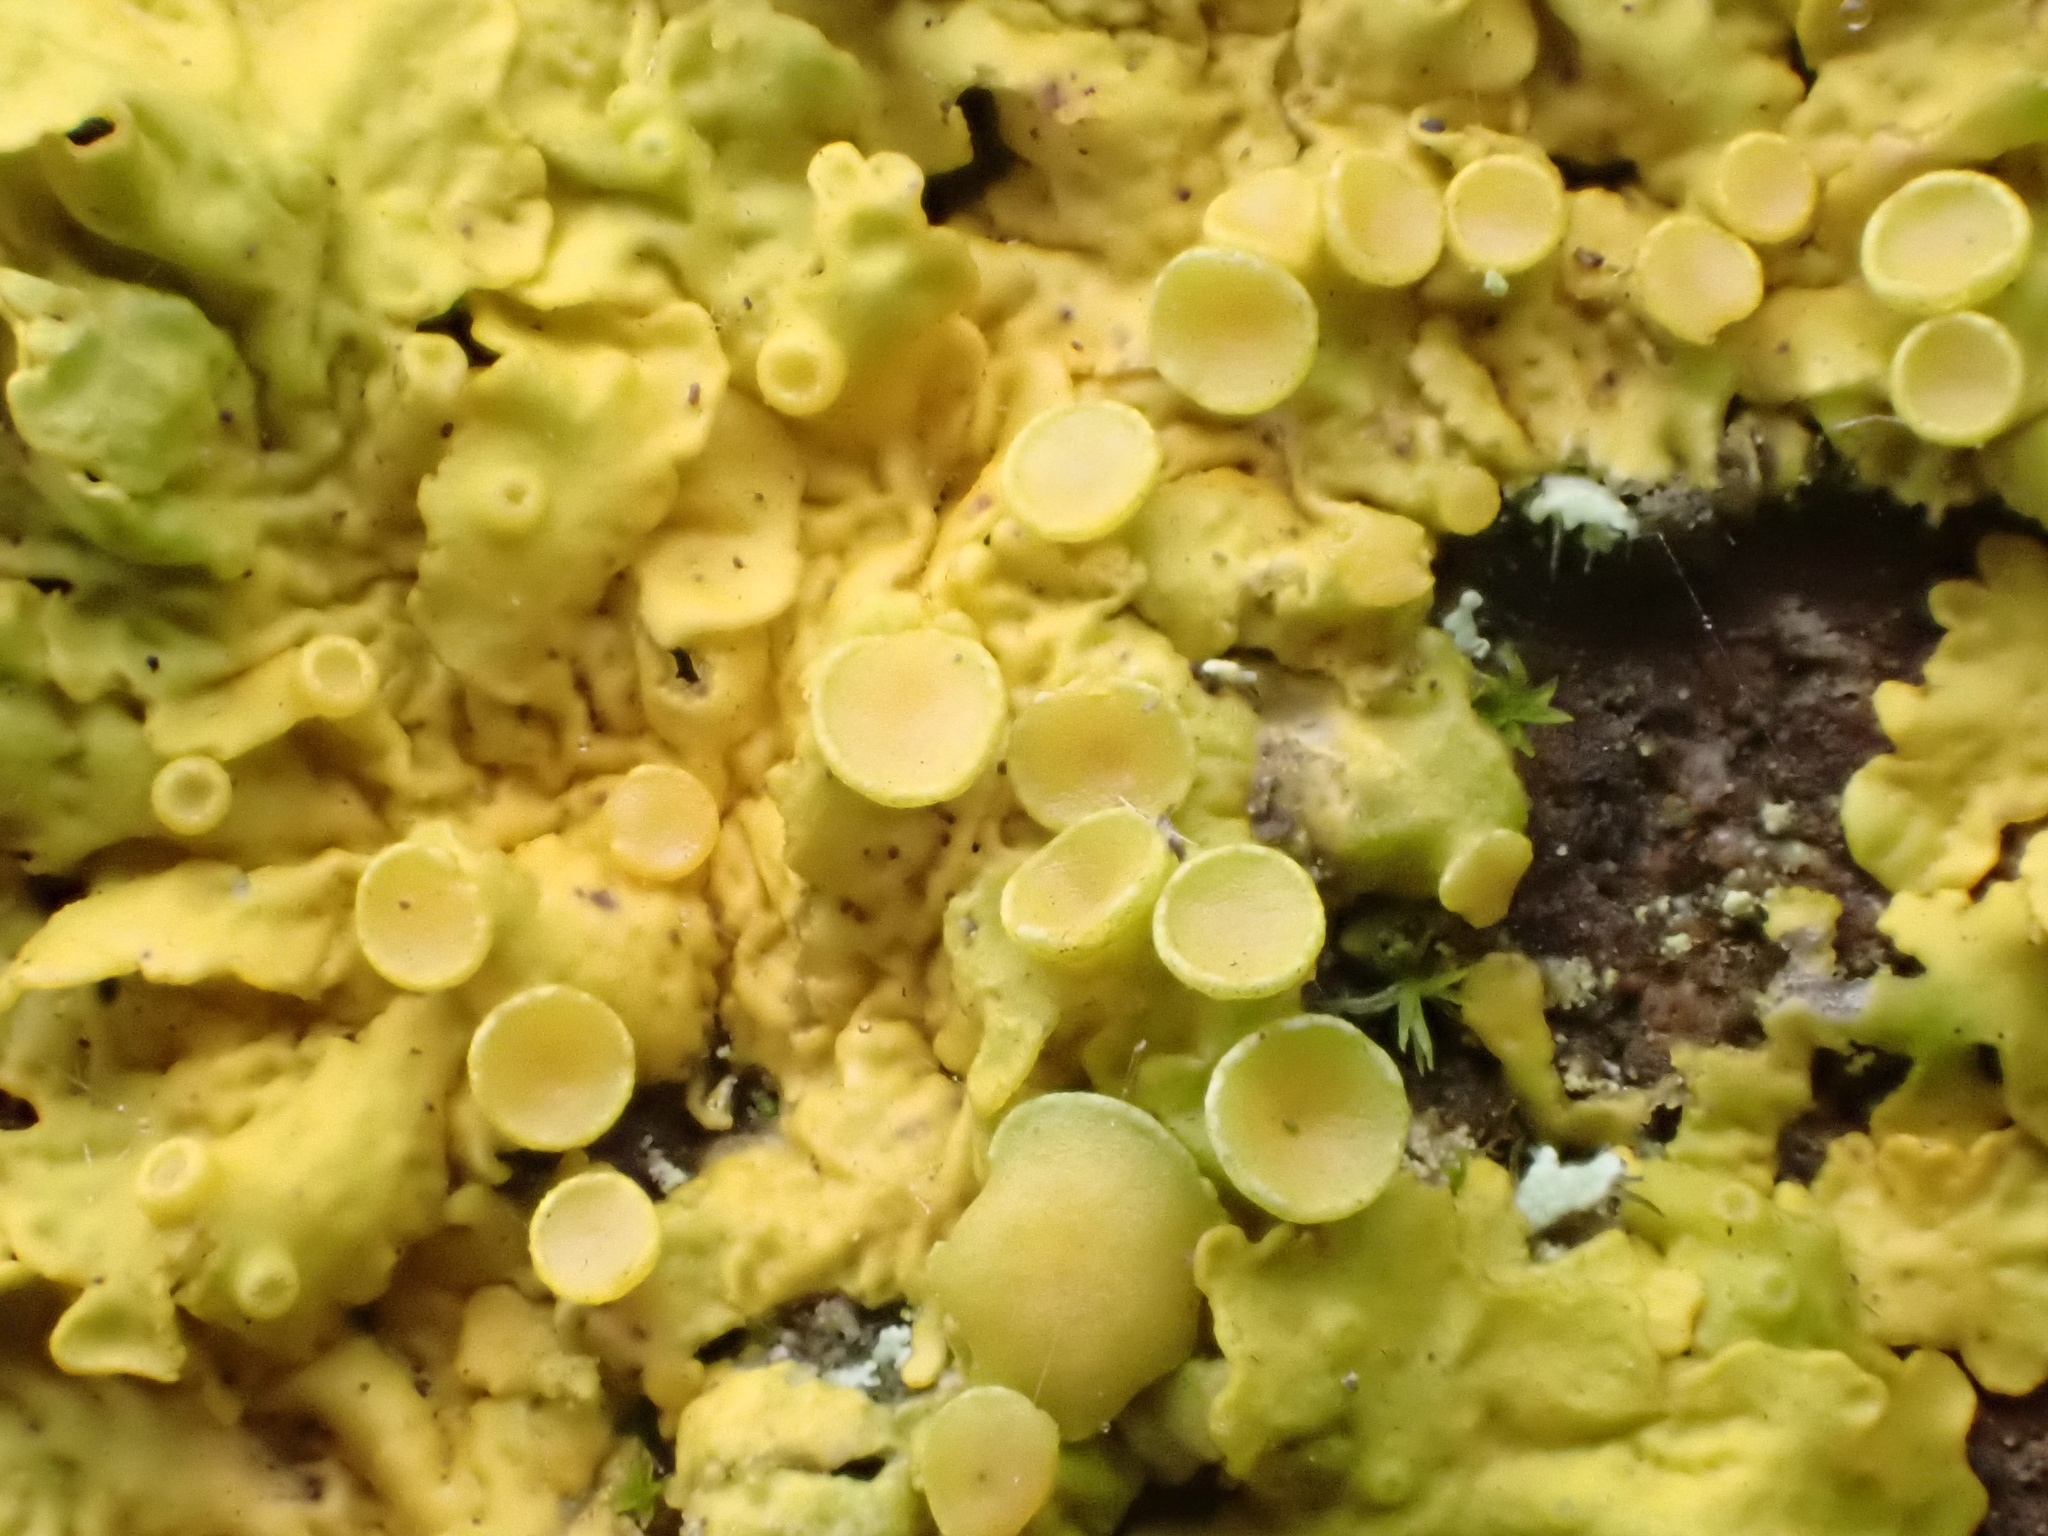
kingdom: Fungi
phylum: Ascomycota
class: Lecanoromycetes
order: Teloschistales
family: Teloschistaceae
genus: Xanthoria
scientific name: Xanthoria parietina
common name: Common orange lichen
